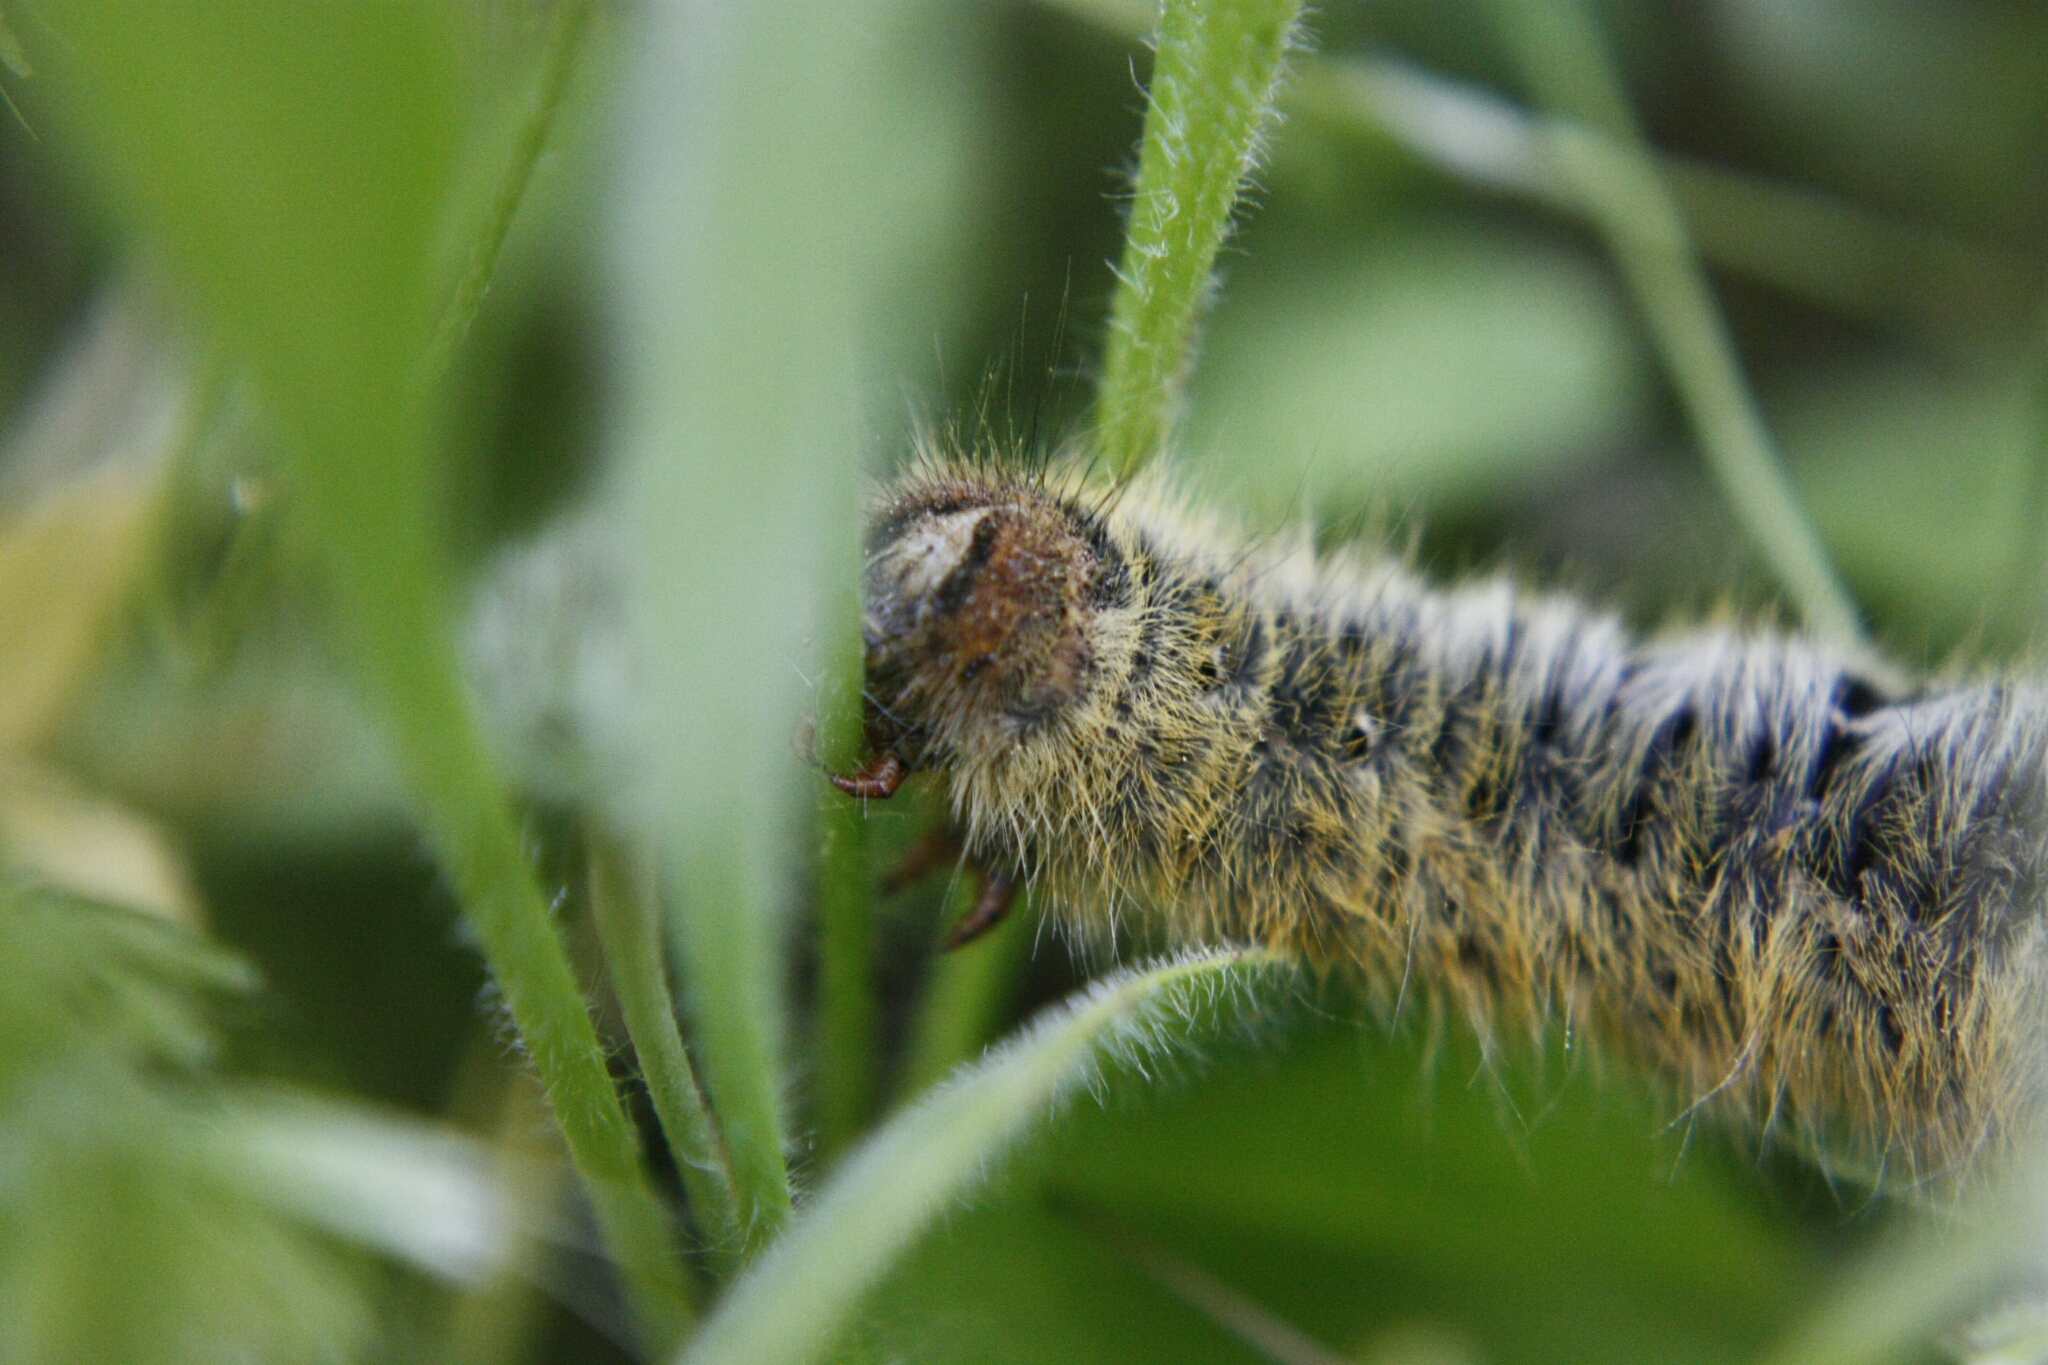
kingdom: Animalia
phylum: Arthropoda
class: Insecta
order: Lepidoptera
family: Lasiocampidae
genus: Lasiocampa
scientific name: Lasiocampa trifolii
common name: Grass eggar
